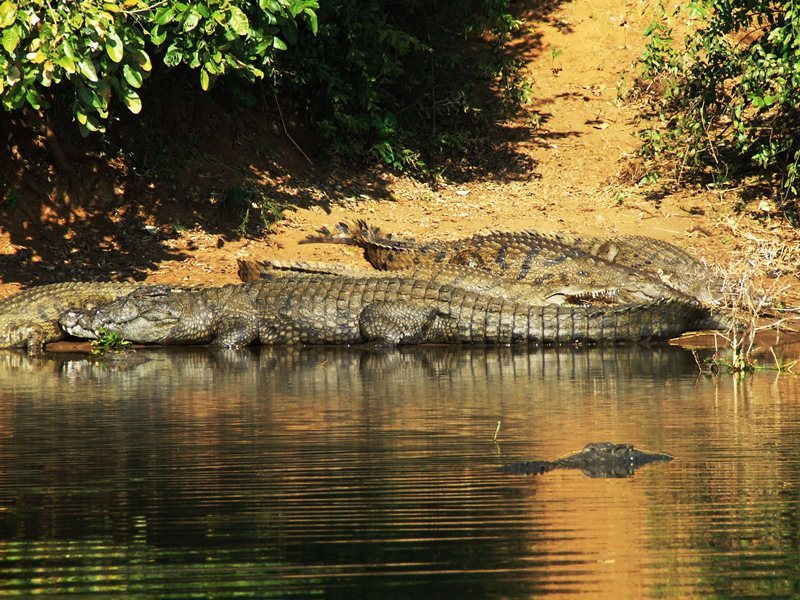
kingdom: Animalia
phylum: Chordata
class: Crocodylia
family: Crocodylidae
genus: Crocodylus
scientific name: Crocodylus niloticus
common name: Nile crocodile
